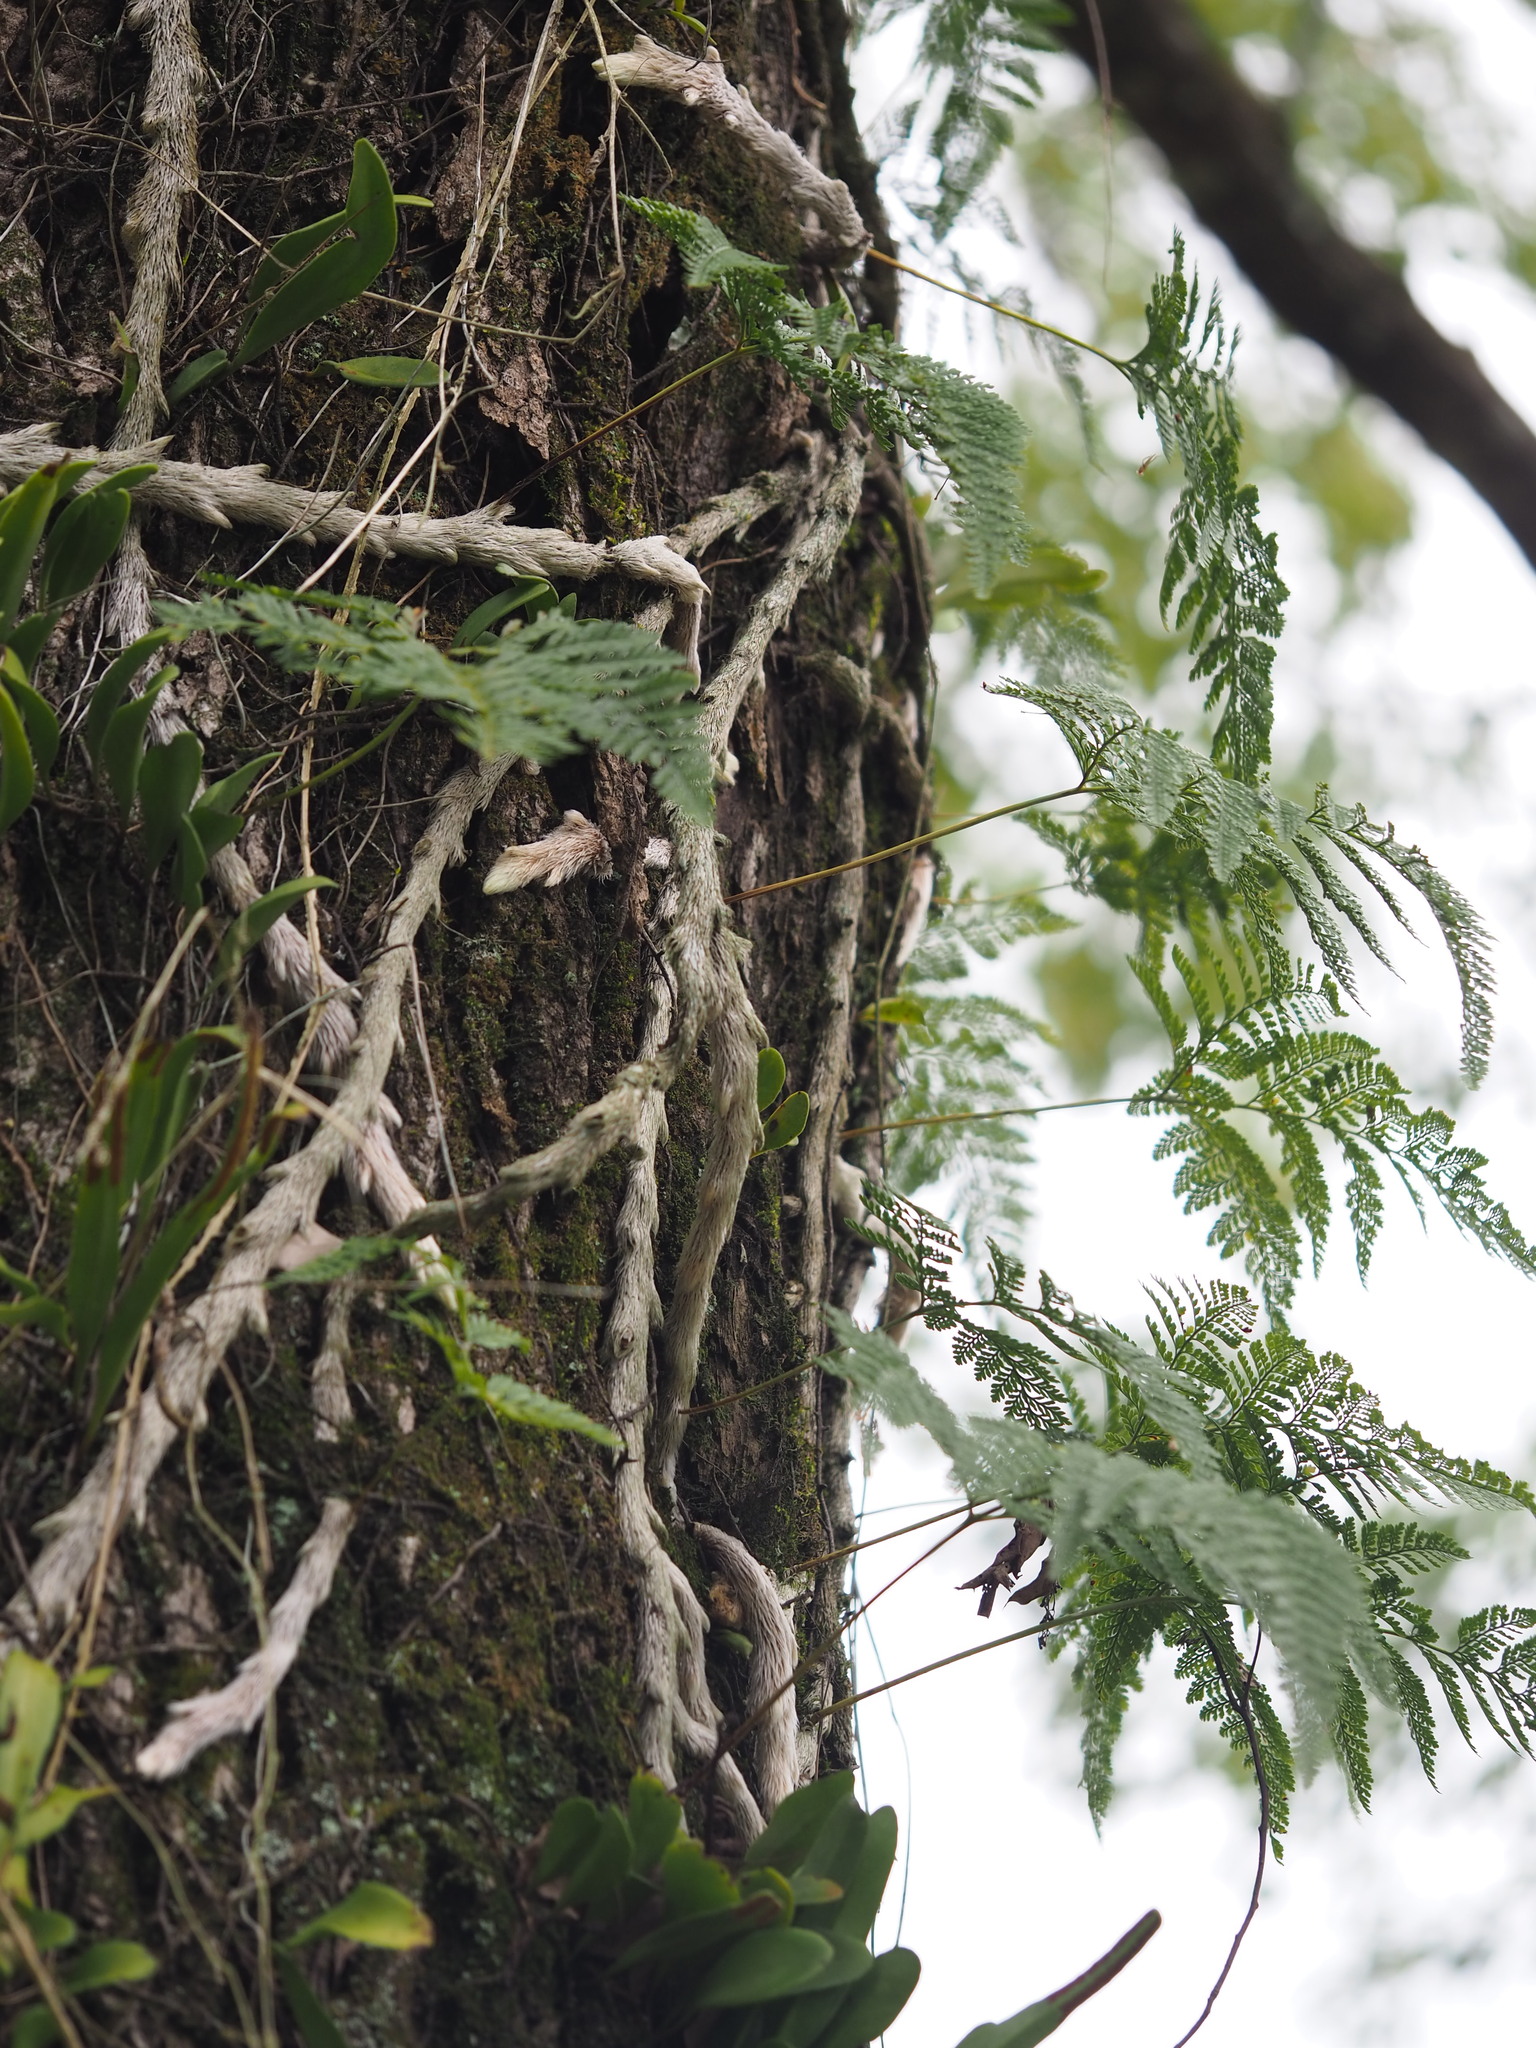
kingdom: Plantae
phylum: Tracheophyta
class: Polypodiopsida
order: Polypodiales
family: Davalliaceae
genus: Davallia
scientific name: Davallia griffithiana
